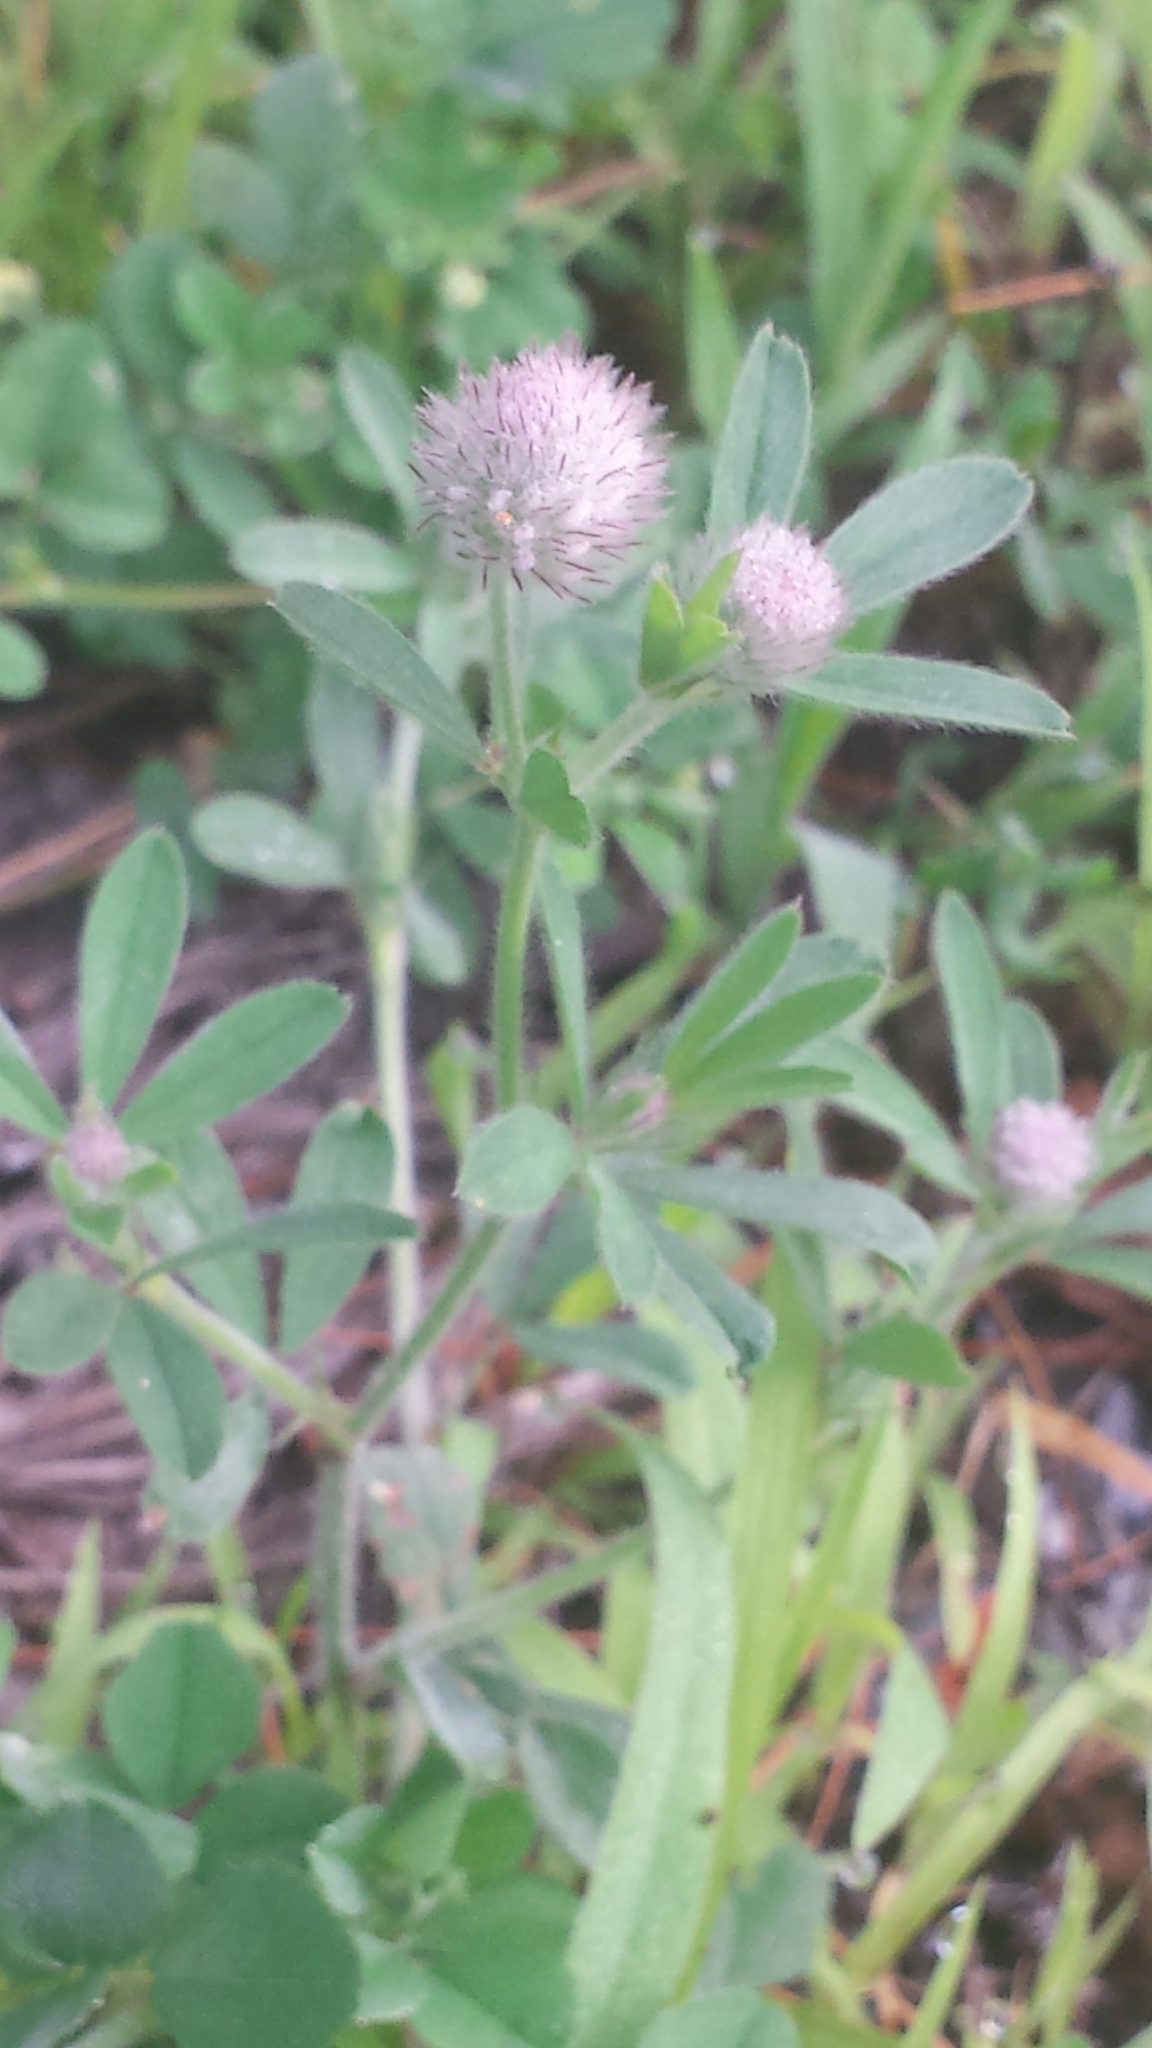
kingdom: Plantae
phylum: Tracheophyta
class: Magnoliopsida
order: Fabales
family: Fabaceae
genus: Trifolium
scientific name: Trifolium arvense
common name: Hare's-foot clover
